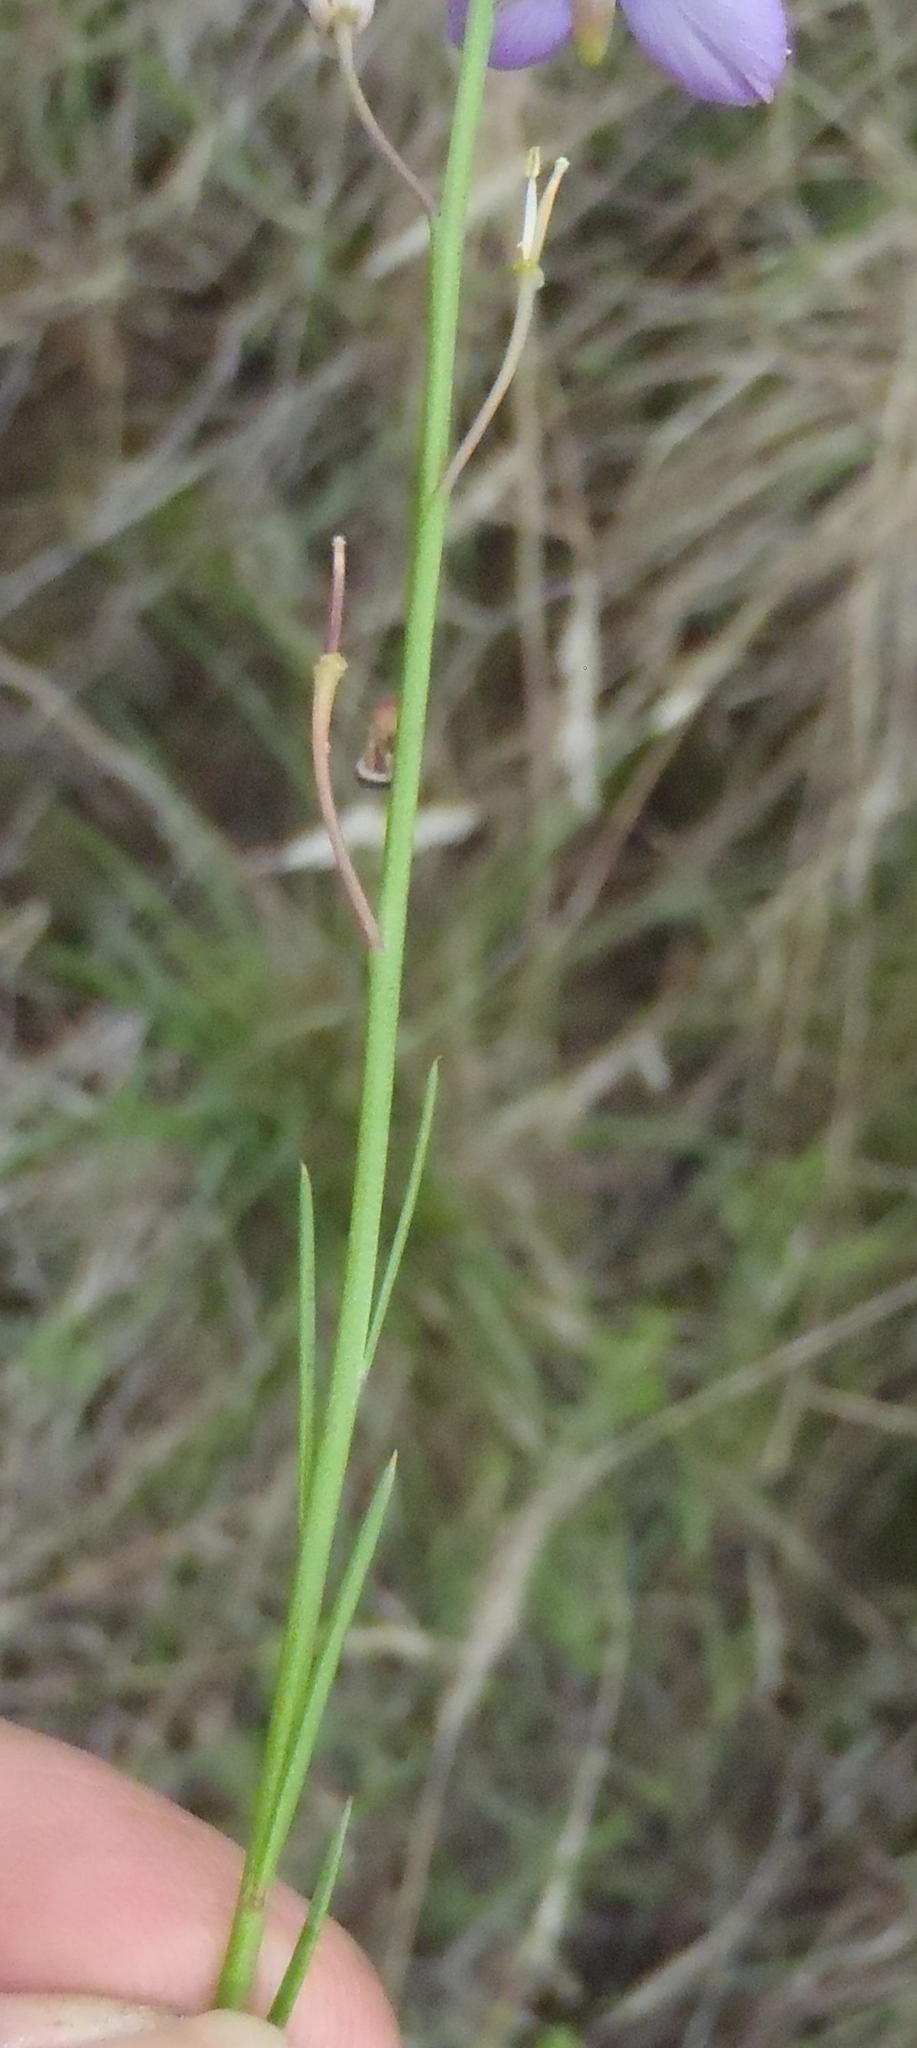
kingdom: Plantae
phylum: Tracheophyta
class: Magnoliopsida
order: Brassicales
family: Brassicaceae
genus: Heliophila
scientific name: Heliophila linearis
